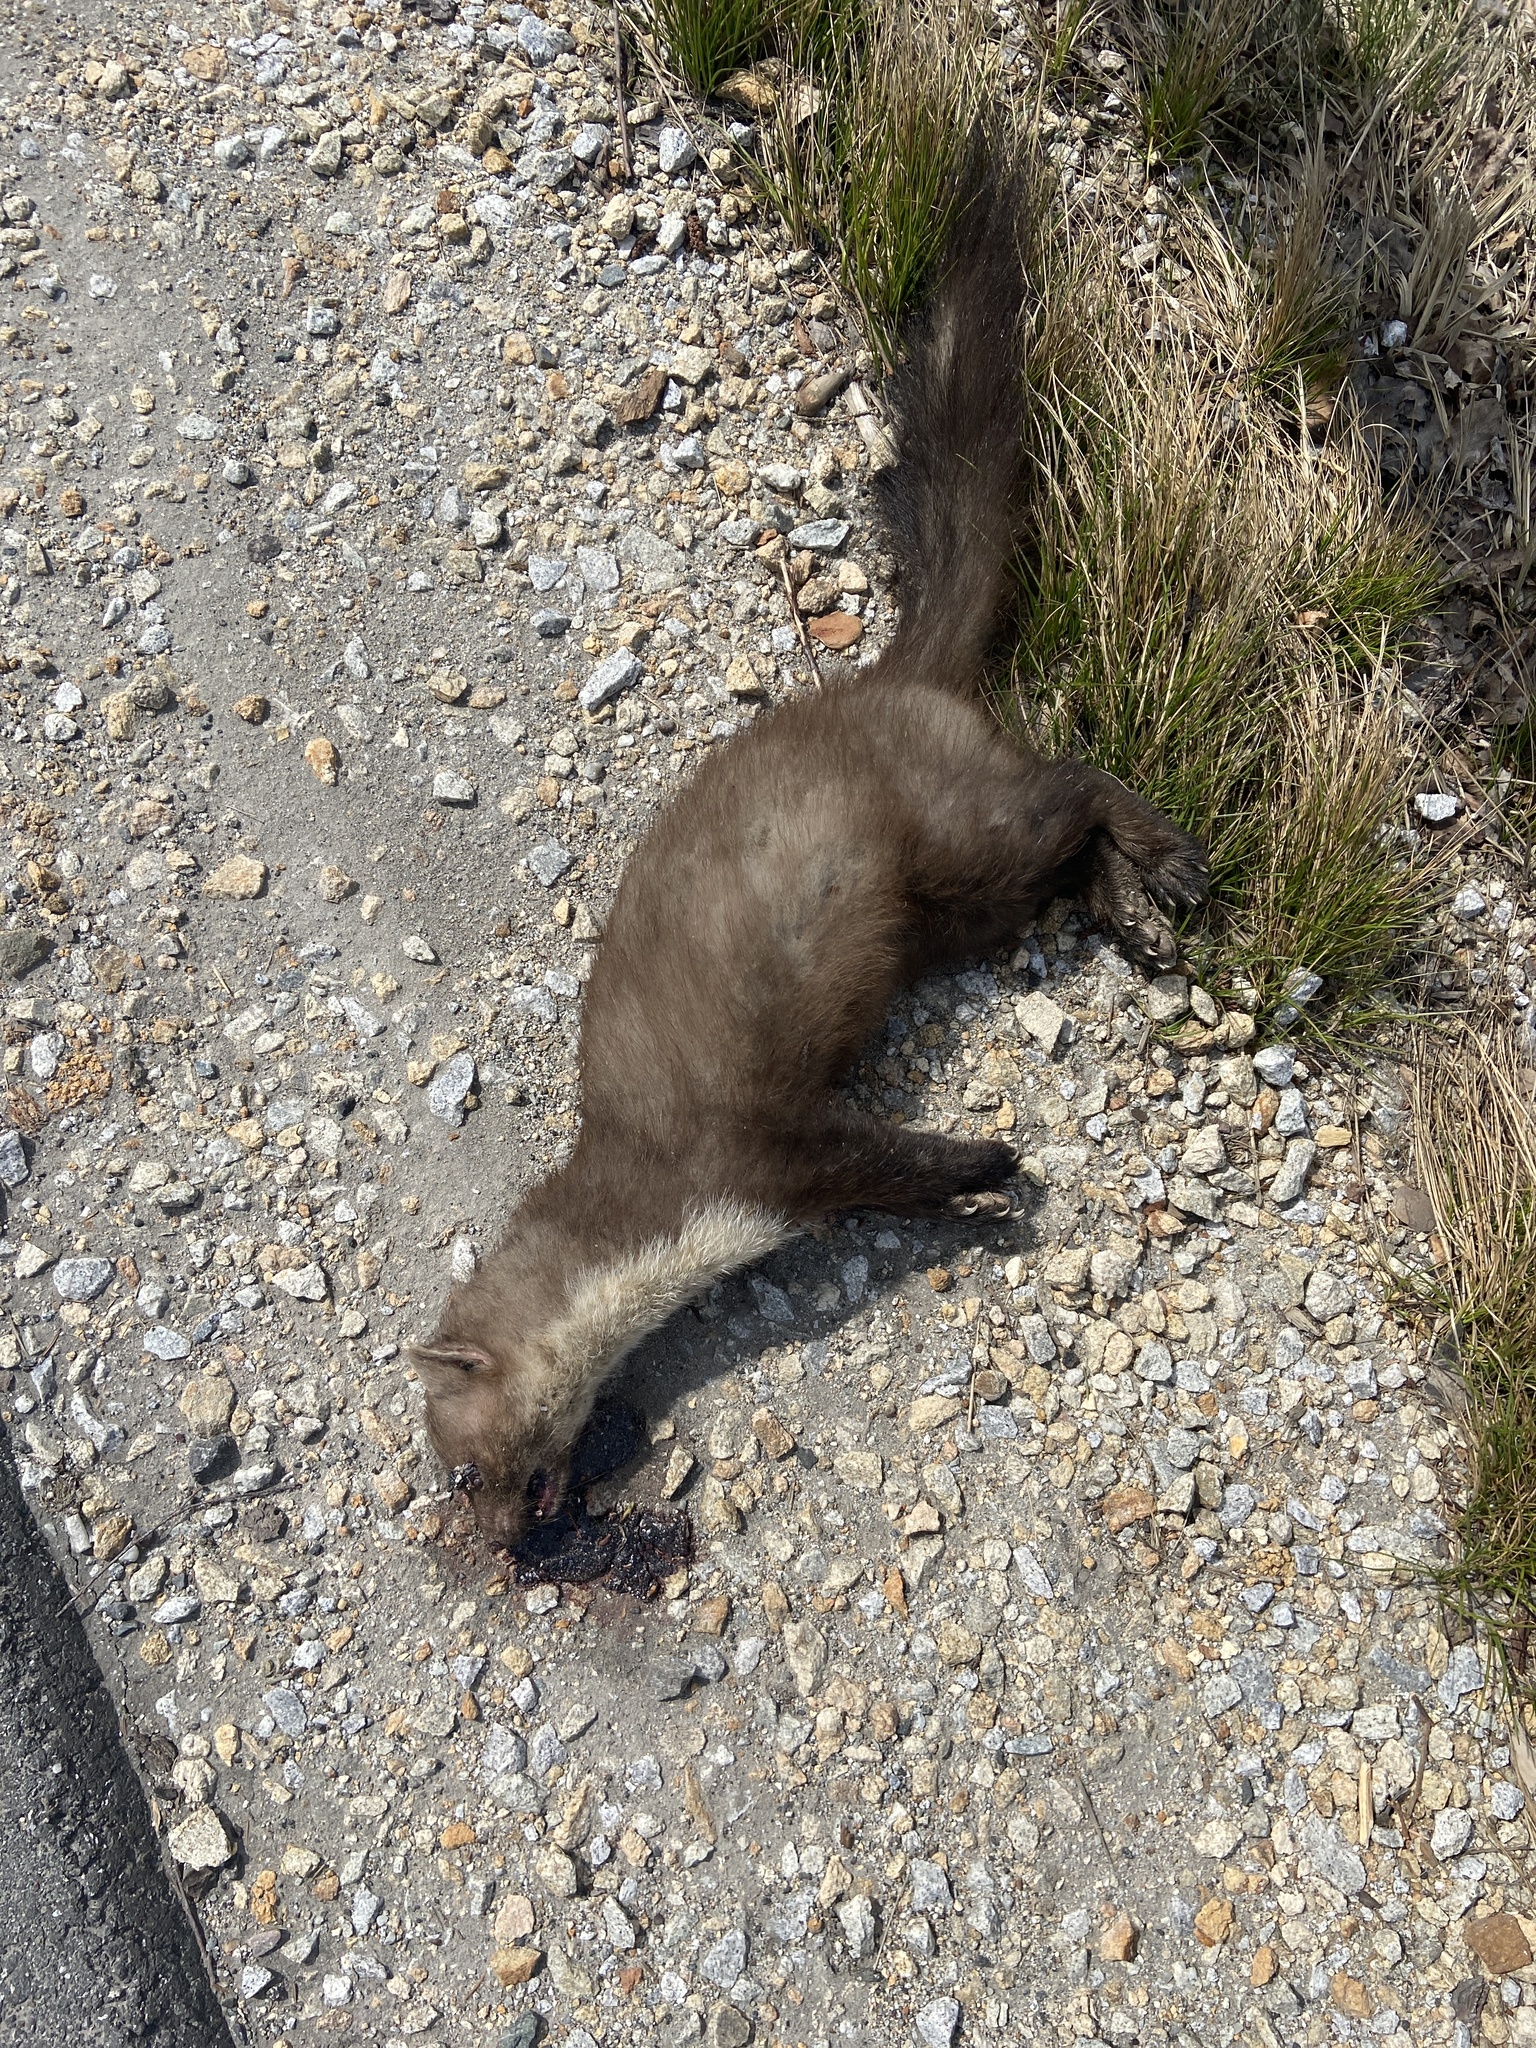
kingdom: Animalia
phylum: Chordata
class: Mammalia
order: Carnivora
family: Mustelidae
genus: Martes
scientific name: Martes foina
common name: Beech marten
